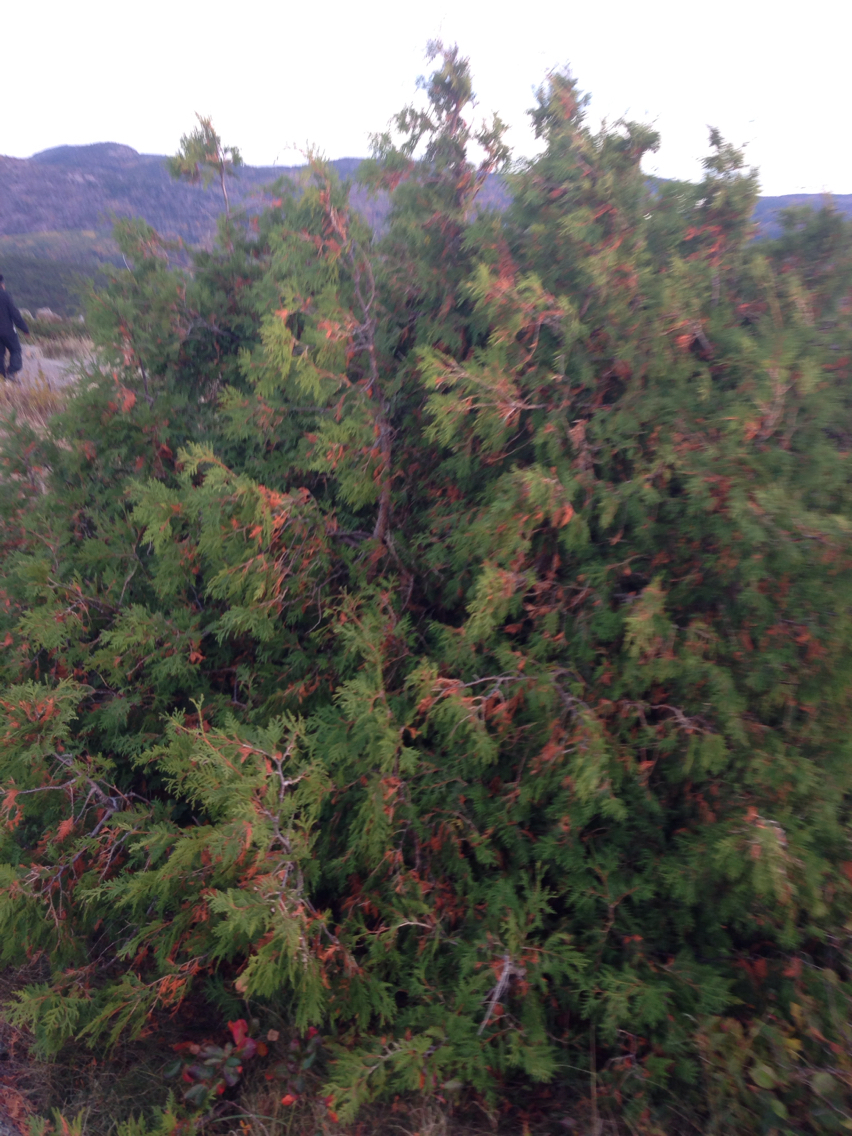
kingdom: Plantae
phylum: Tracheophyta
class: Pinopsida
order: Pinales
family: Cupressaceae
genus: Thuja
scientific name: Thuja occidentalis
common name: Northern white-cedar
